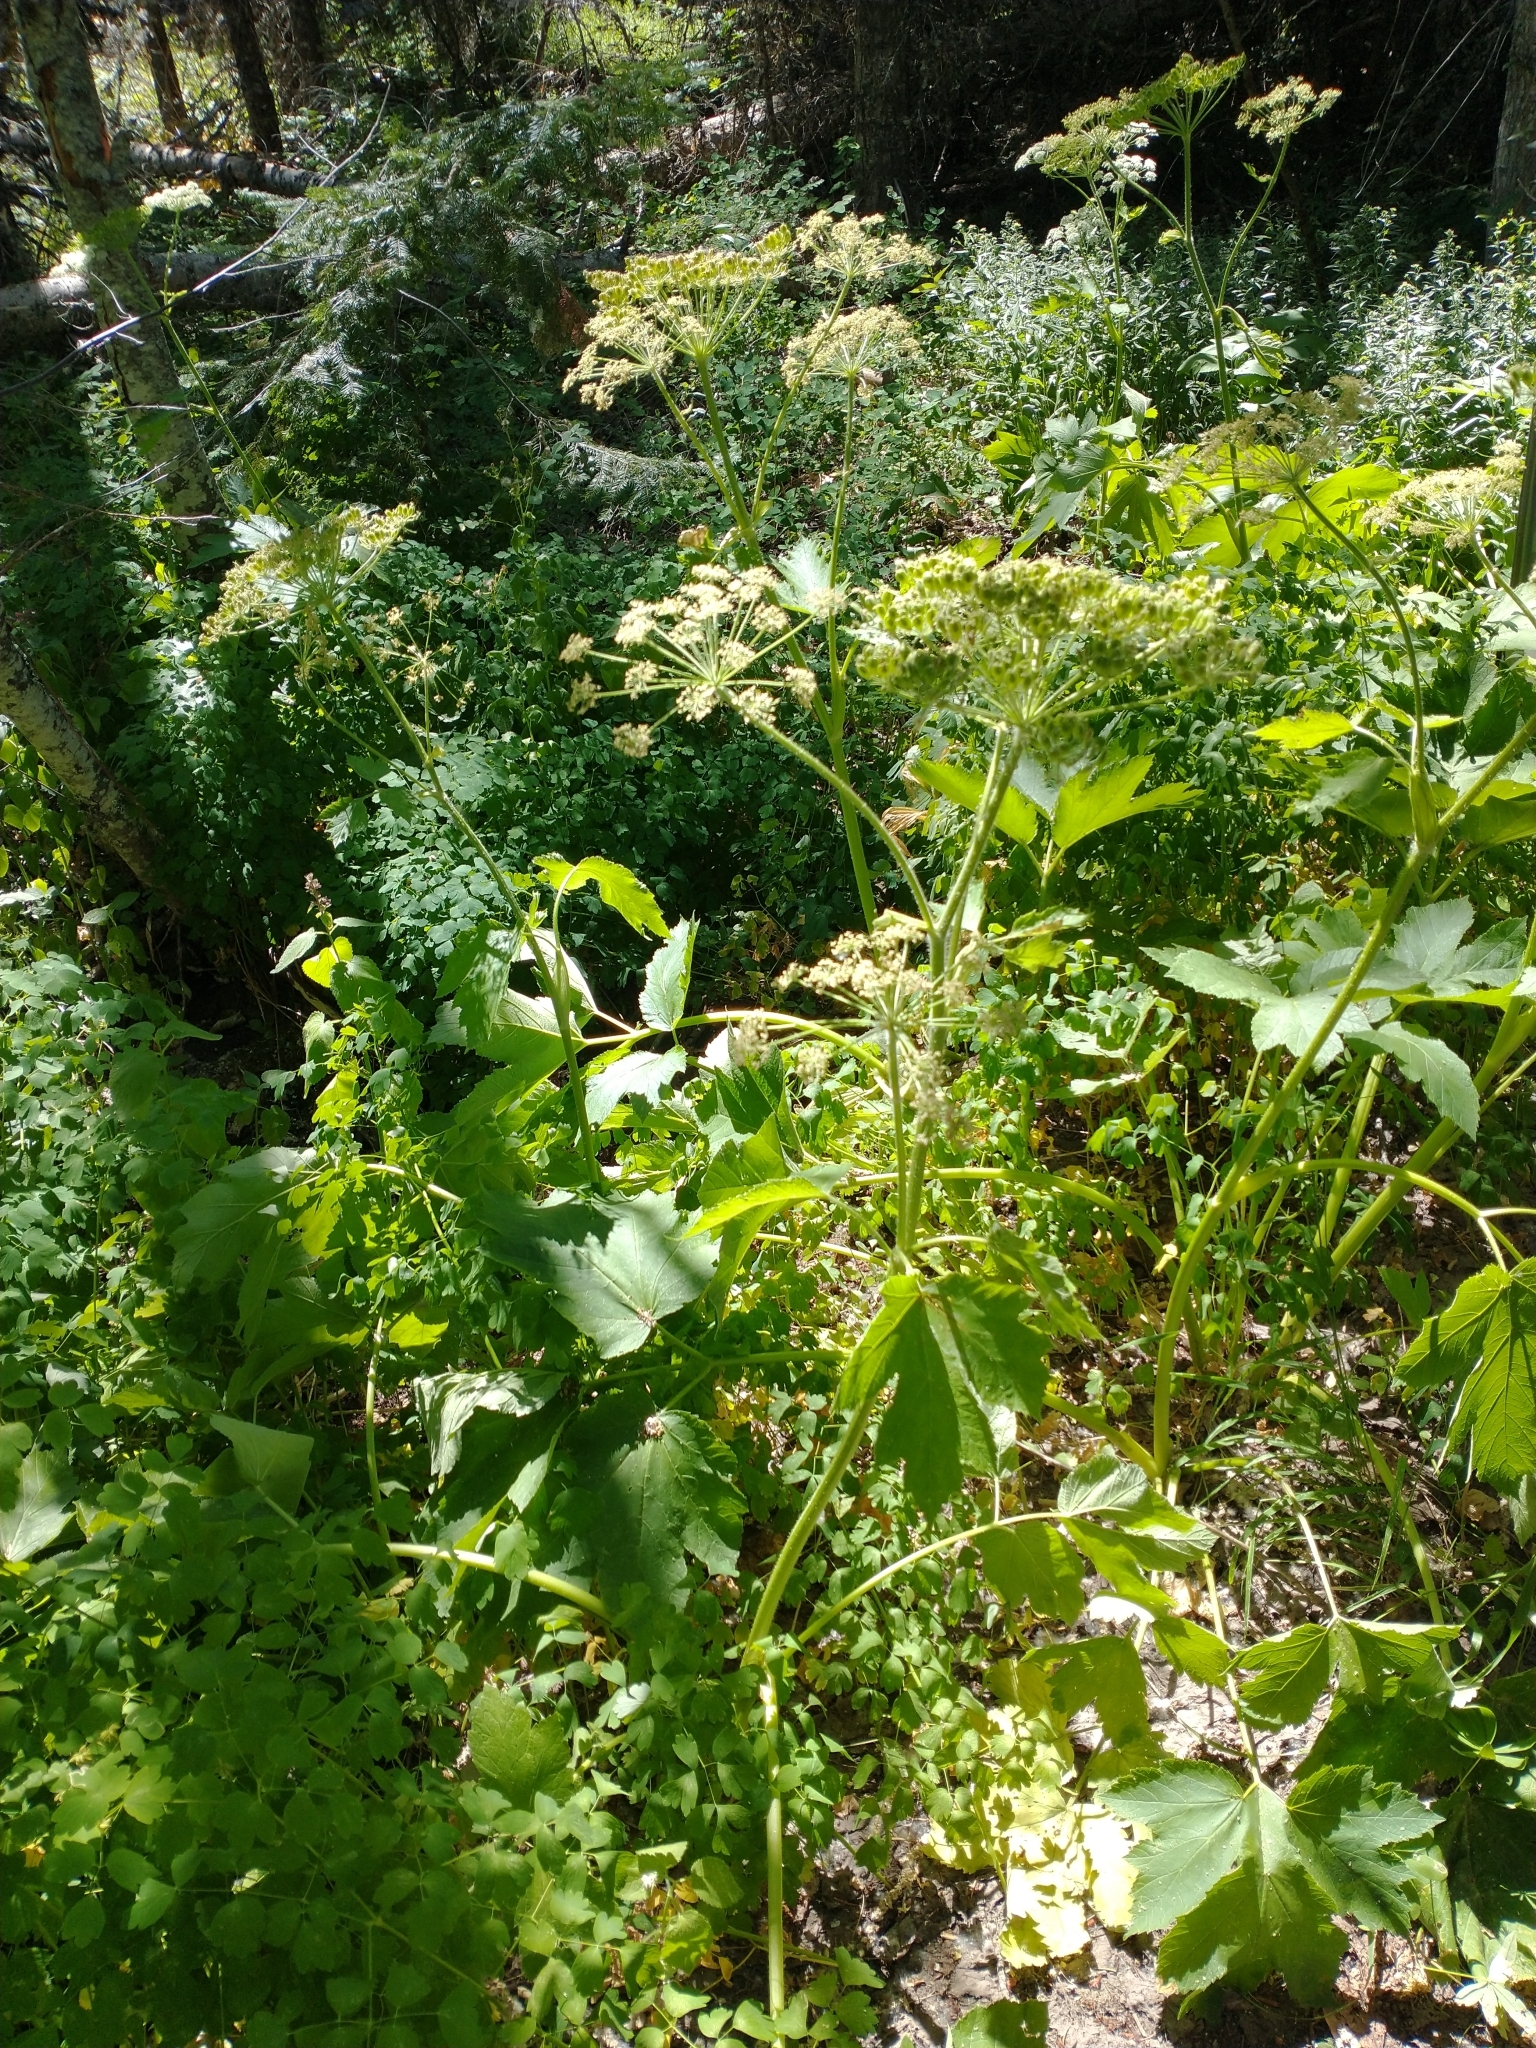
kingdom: Plantae
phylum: Tracheophyta
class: Magnoliopsida
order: Apiales
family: Apiaceae
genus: Heracleum
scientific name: Heracleum maximum
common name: American cow parsnip
